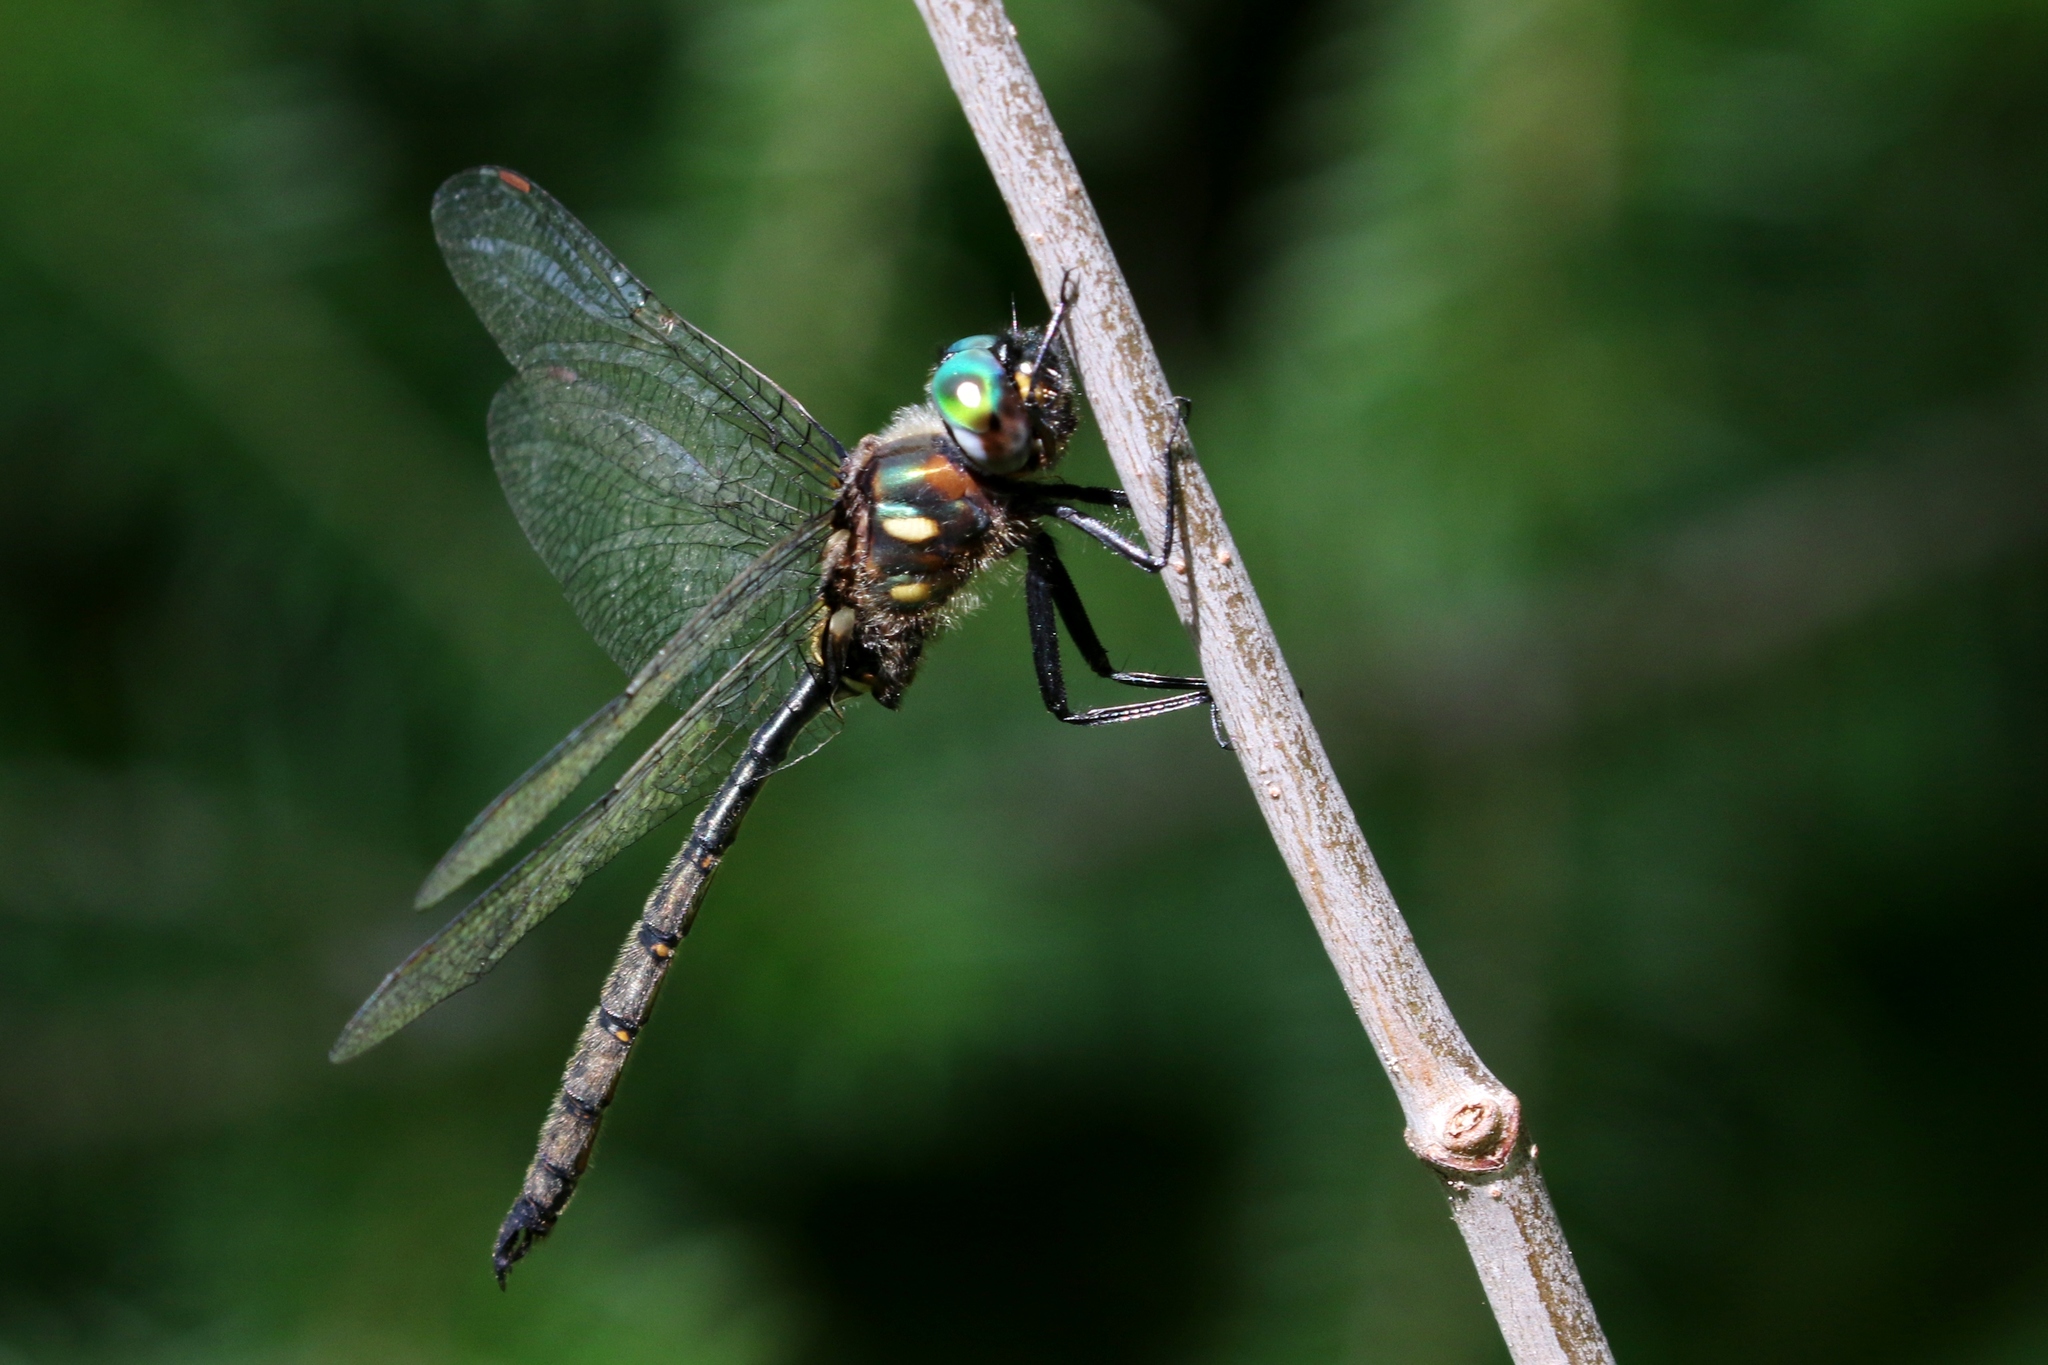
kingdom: Animalia
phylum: Arthropoda
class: Insecta
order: Odonata
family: Corduliidae
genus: Somatochlora
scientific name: Somatochlora forcipata
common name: Forcipate emerald
